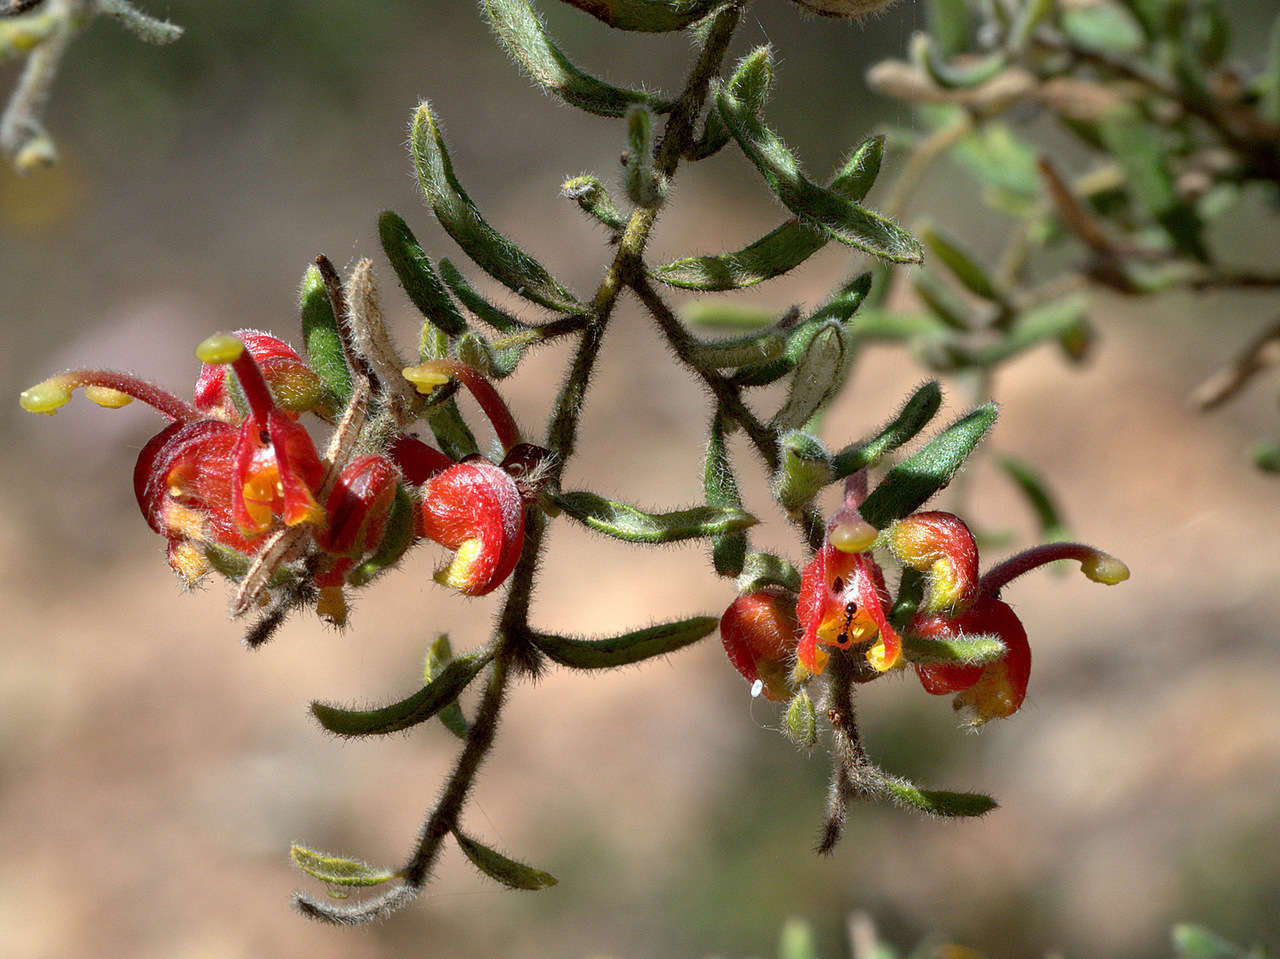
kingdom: Plantae
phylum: Tracheophyta
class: Magnoliopsida
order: Proteales
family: Proteaceae
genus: Grevillea
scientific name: Grevillea alpina
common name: Catclaws grevillea
